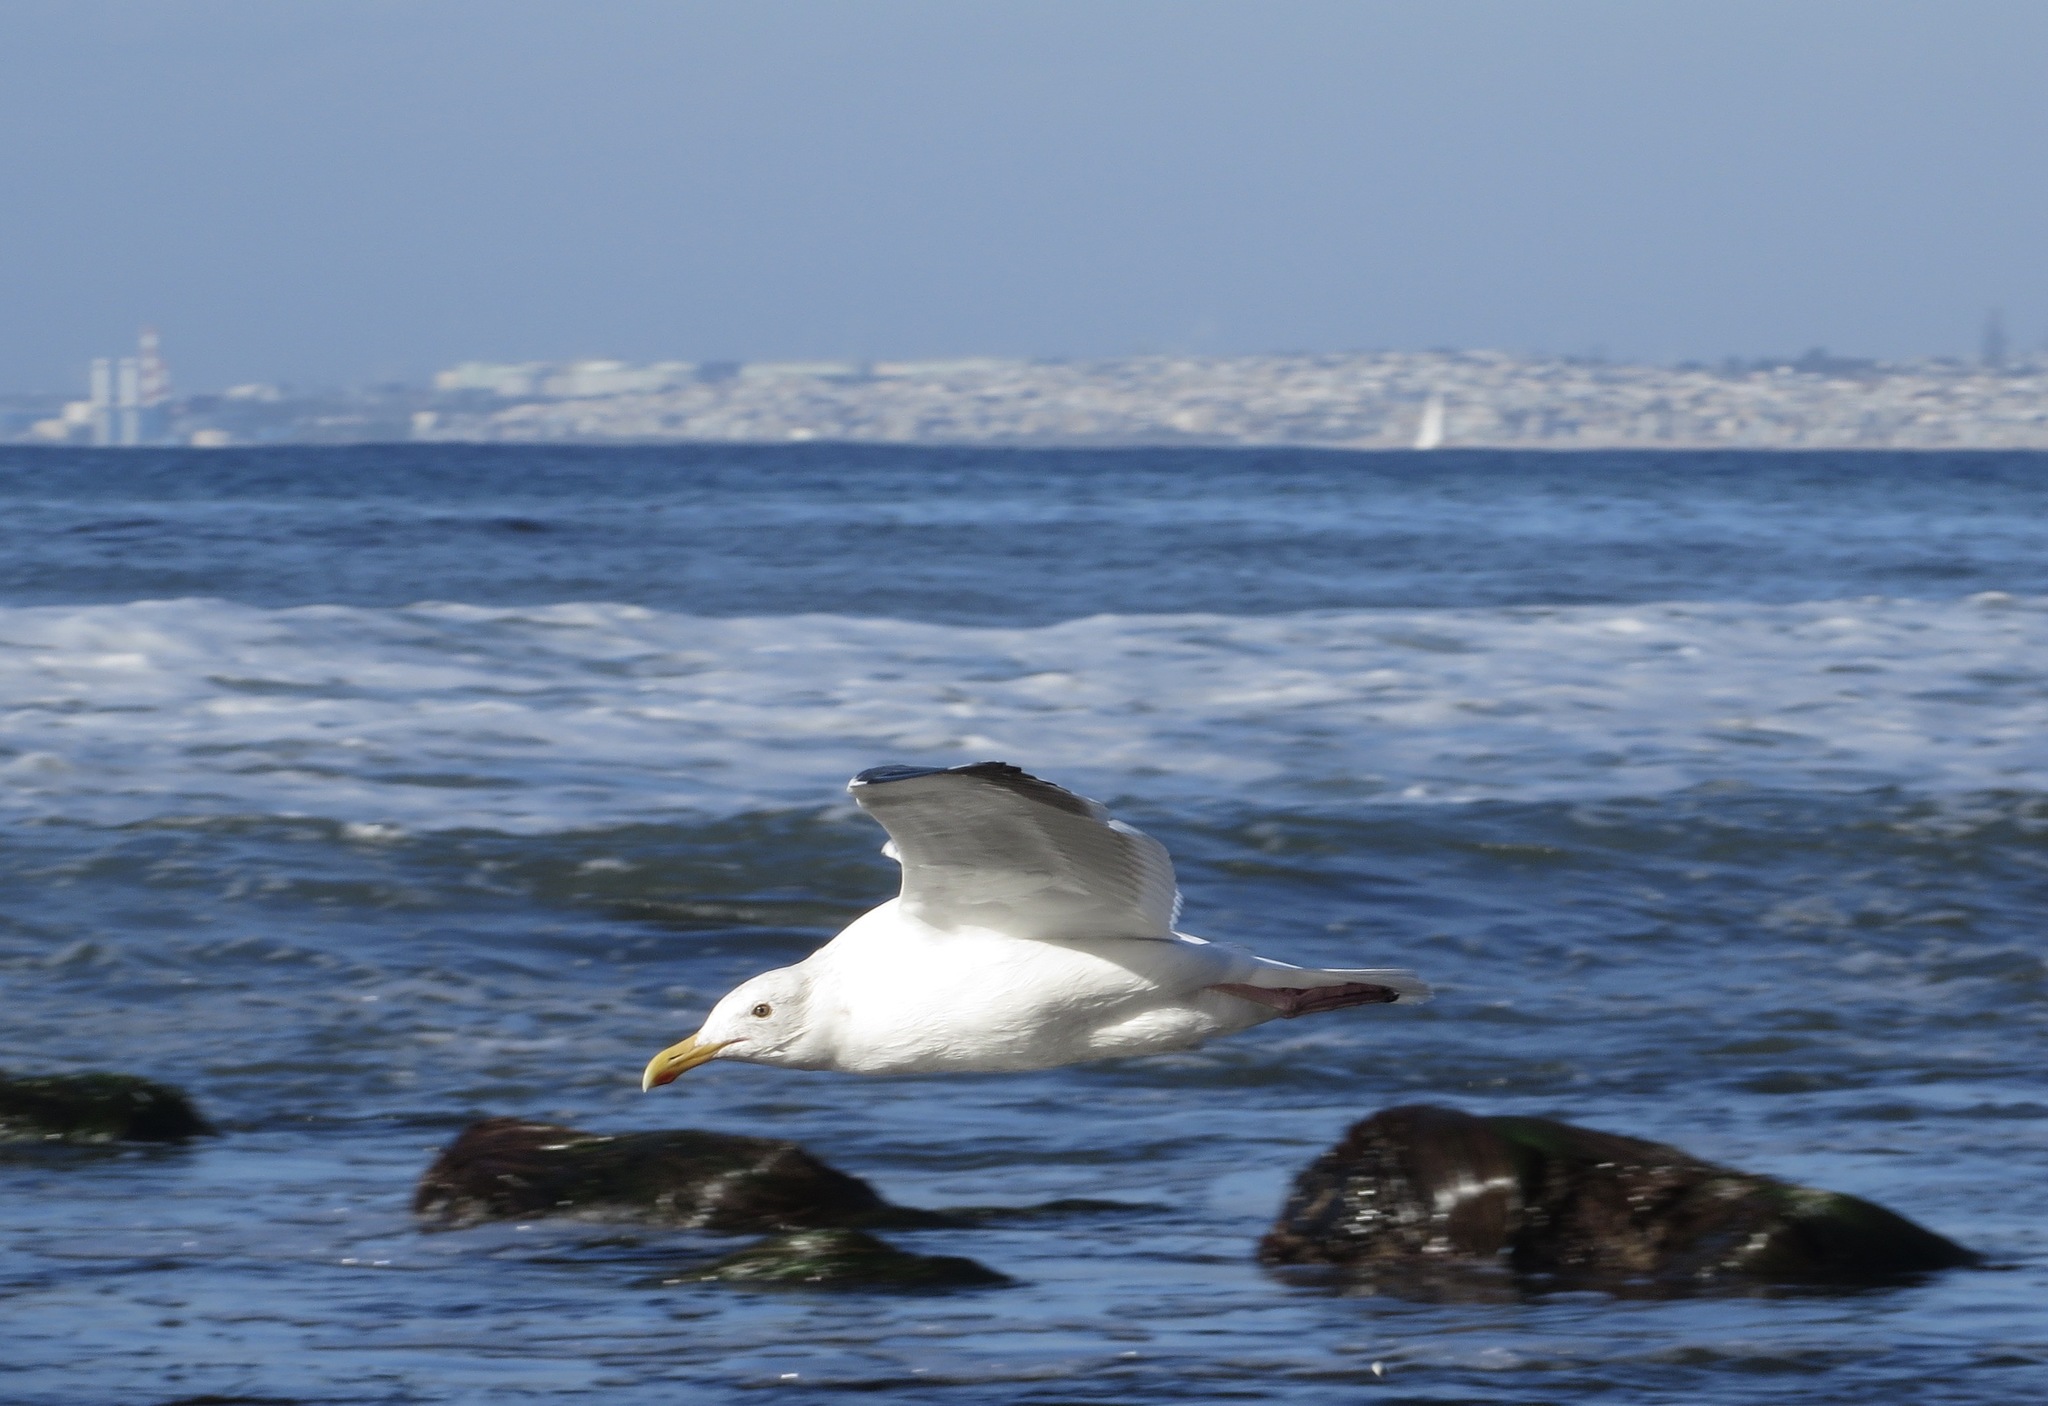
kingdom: Animalia
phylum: Chordata
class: Aves
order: Charadriiformes
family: Laridae
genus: Larus
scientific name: Larus occidentalis
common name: Western gull
